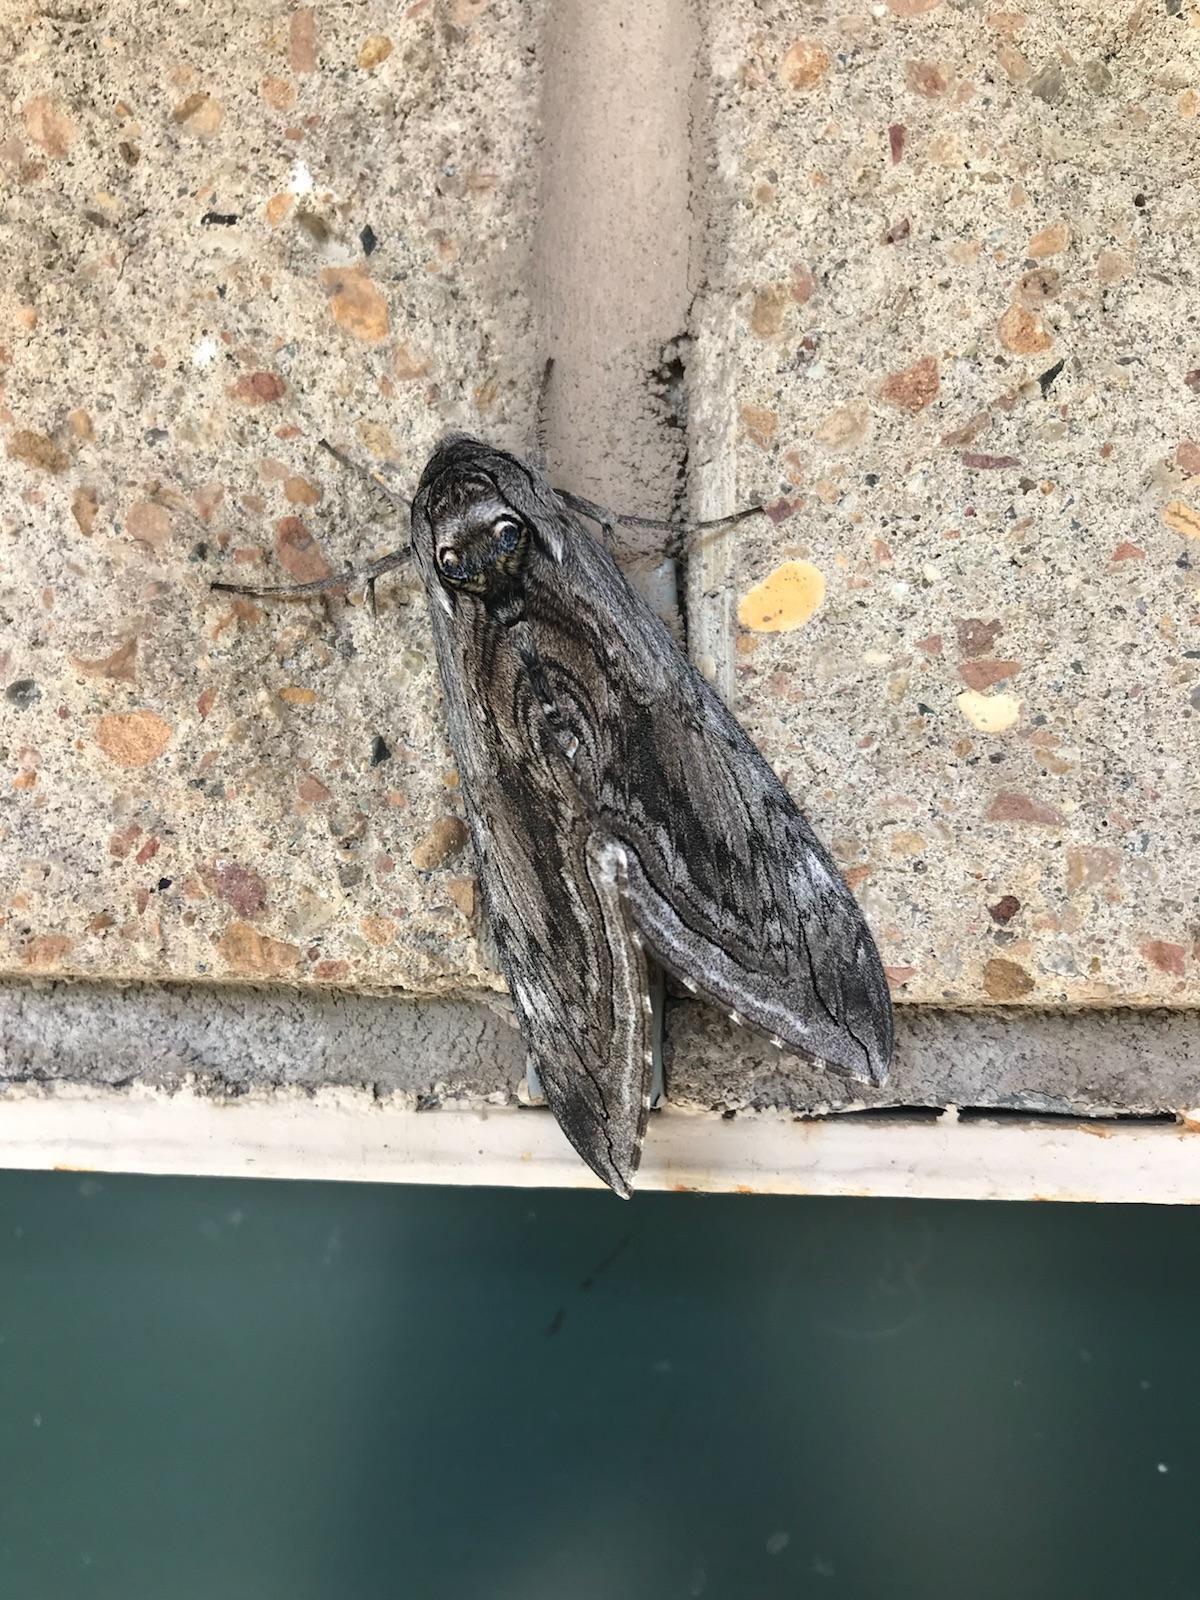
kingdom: Animalia
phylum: Arthropoda
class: Insecta
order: Lepidoptera
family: Sphingidae
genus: Manduca
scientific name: Manduca quinquemaculatus
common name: Five-spotted hawk-moth
